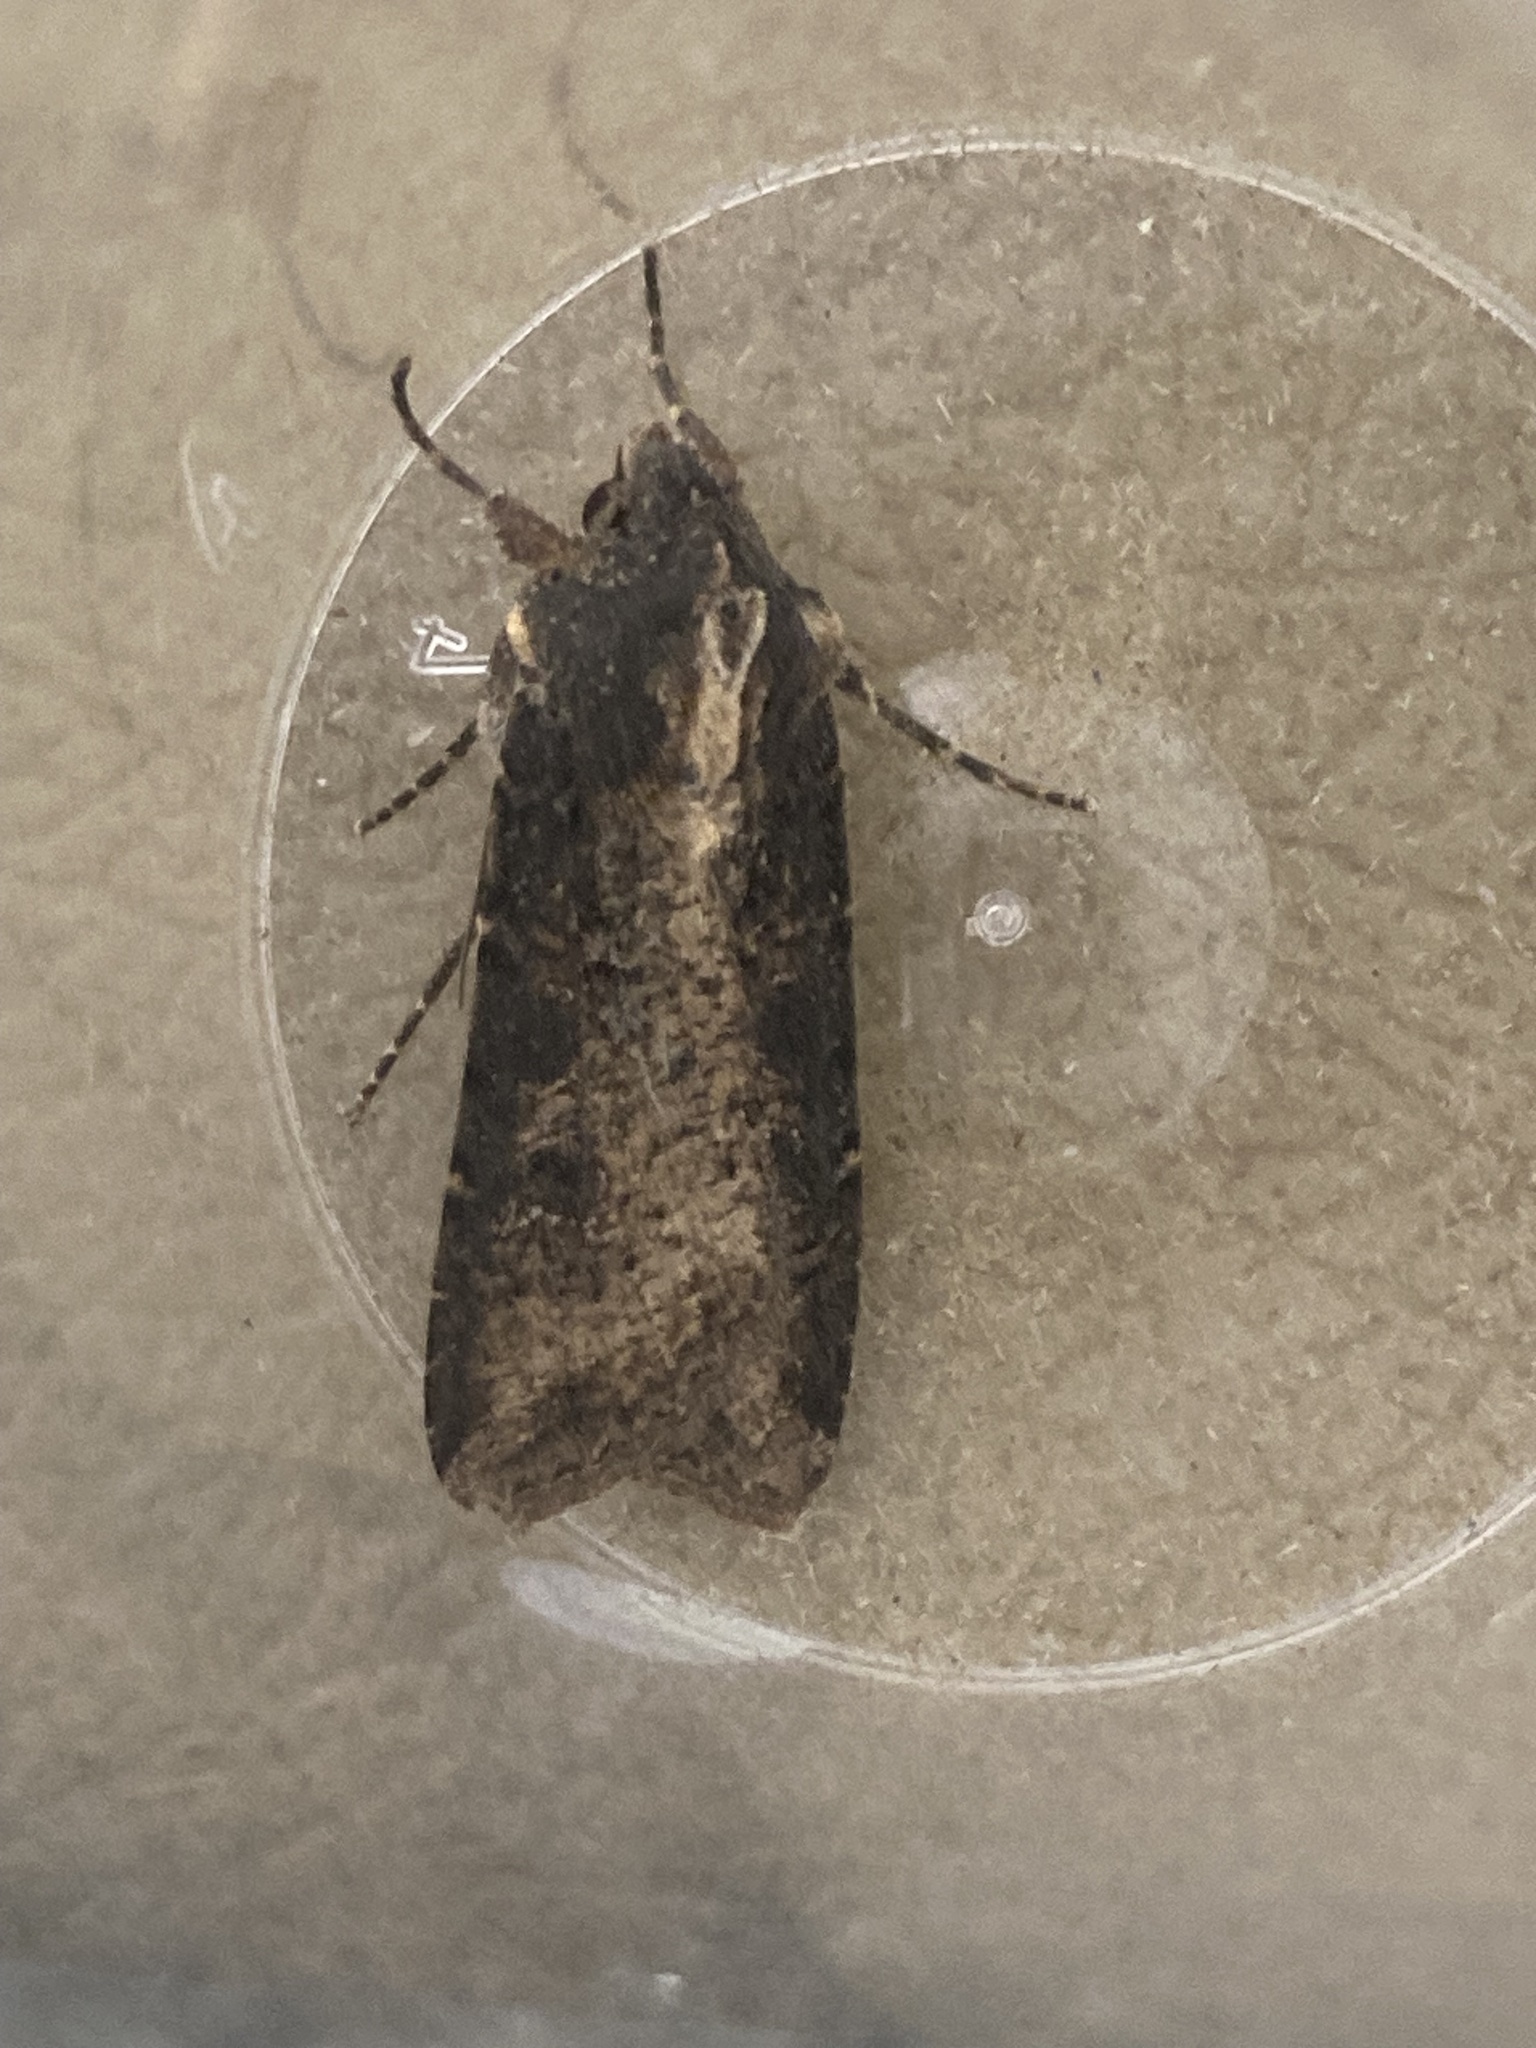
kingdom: Animalia
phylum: Arthropoda
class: Insecta
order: Lepidoptera
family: Noctuidae
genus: Peridroma
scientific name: Peridroma saucia
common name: Pearly underwing
